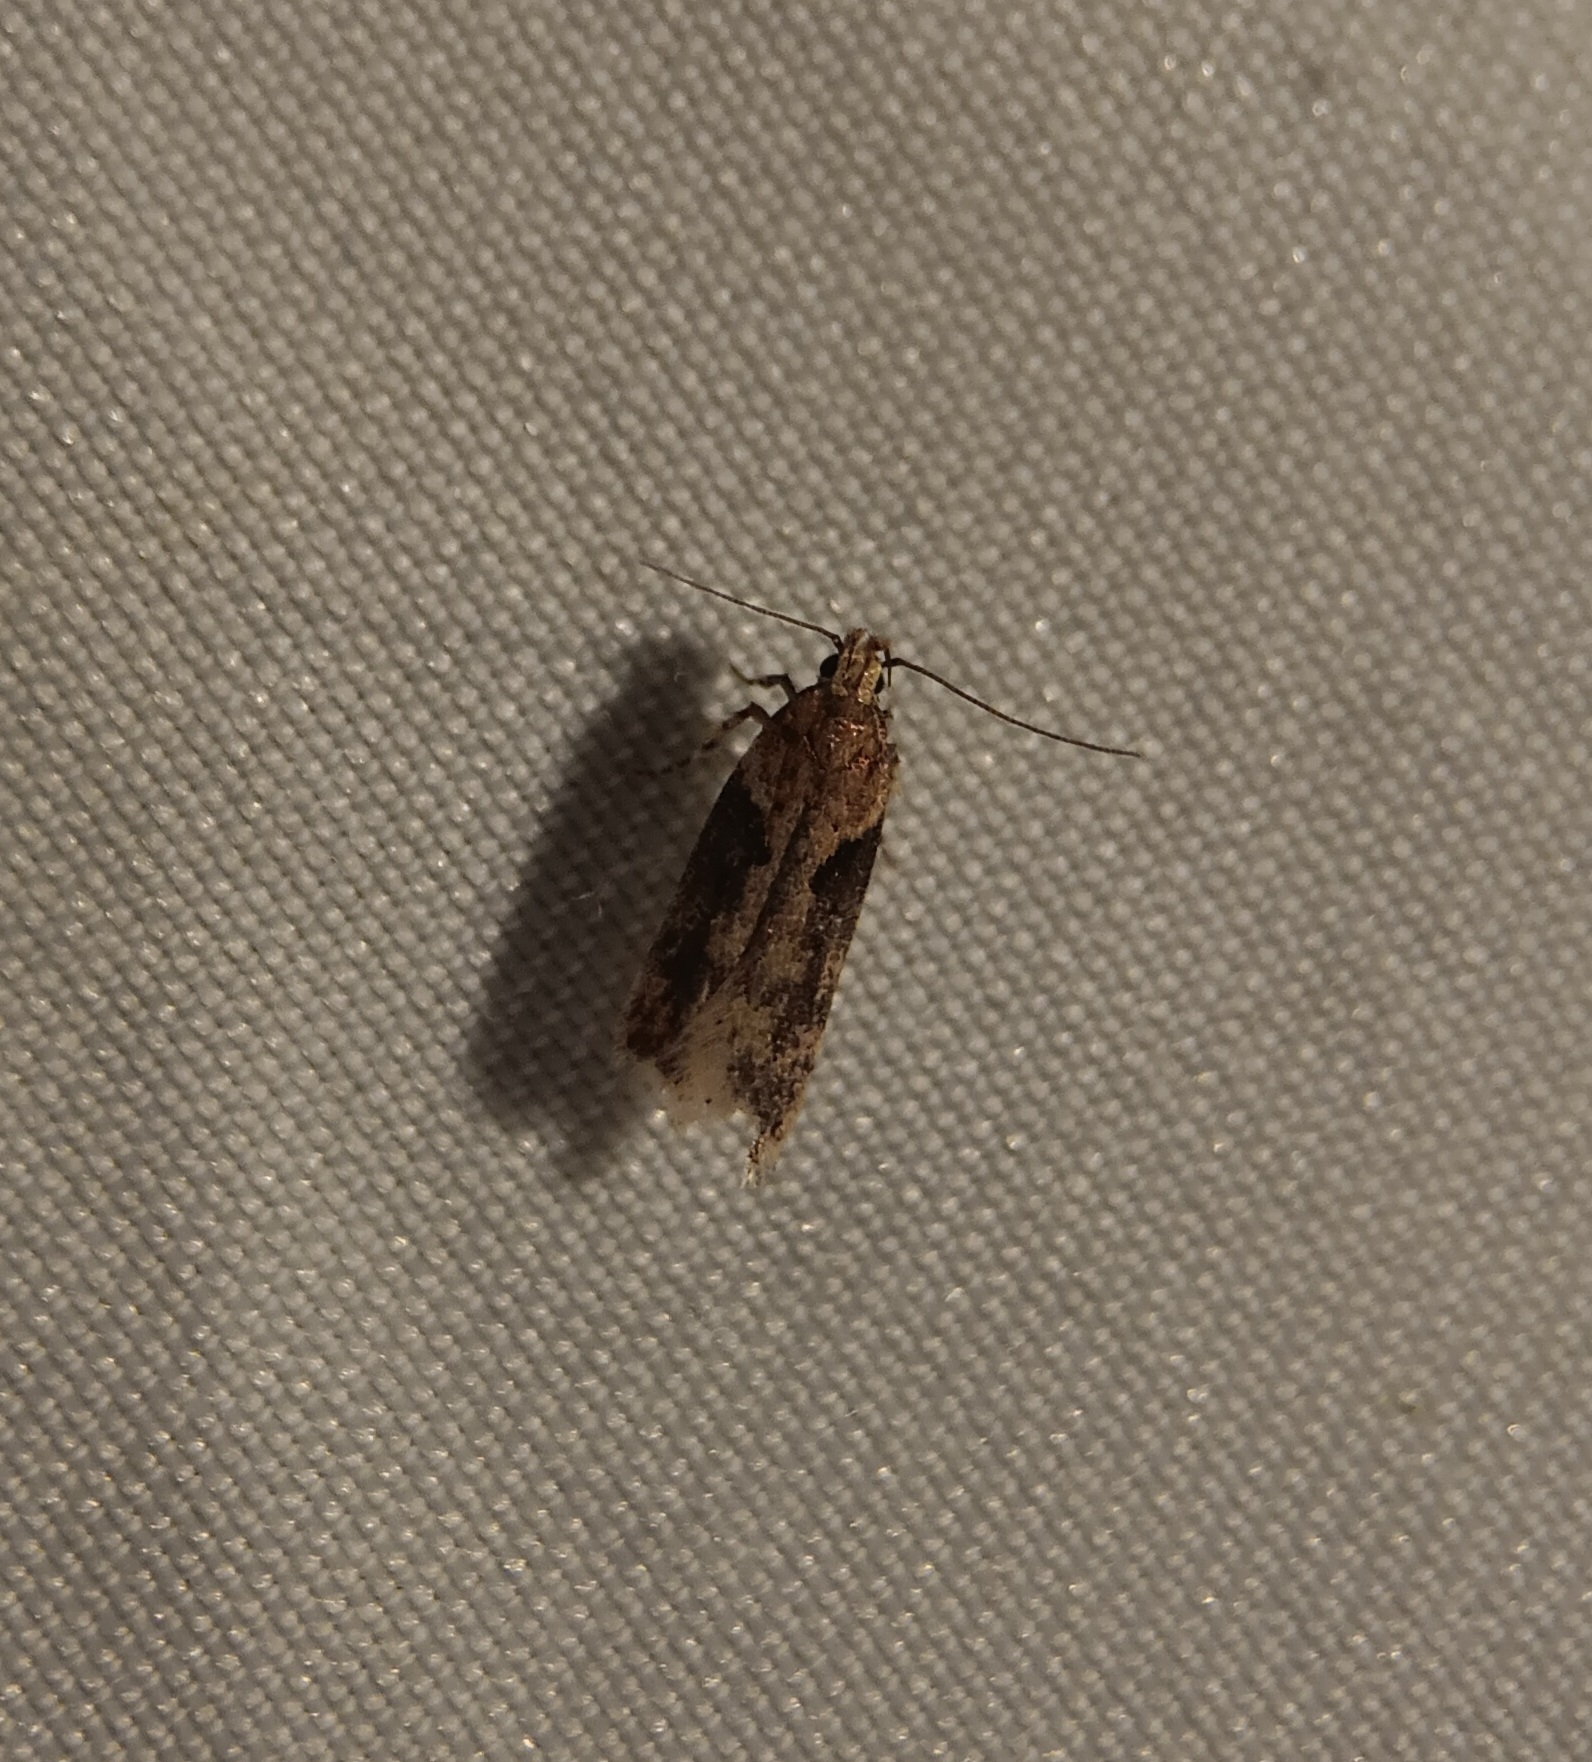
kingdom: Animalia
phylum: Arthropoda
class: Insecta
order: Lepidoptera
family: Gelechiidae
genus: Chionodes
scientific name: Chionodes mediofuscella
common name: Black-smudged chionodes moth
